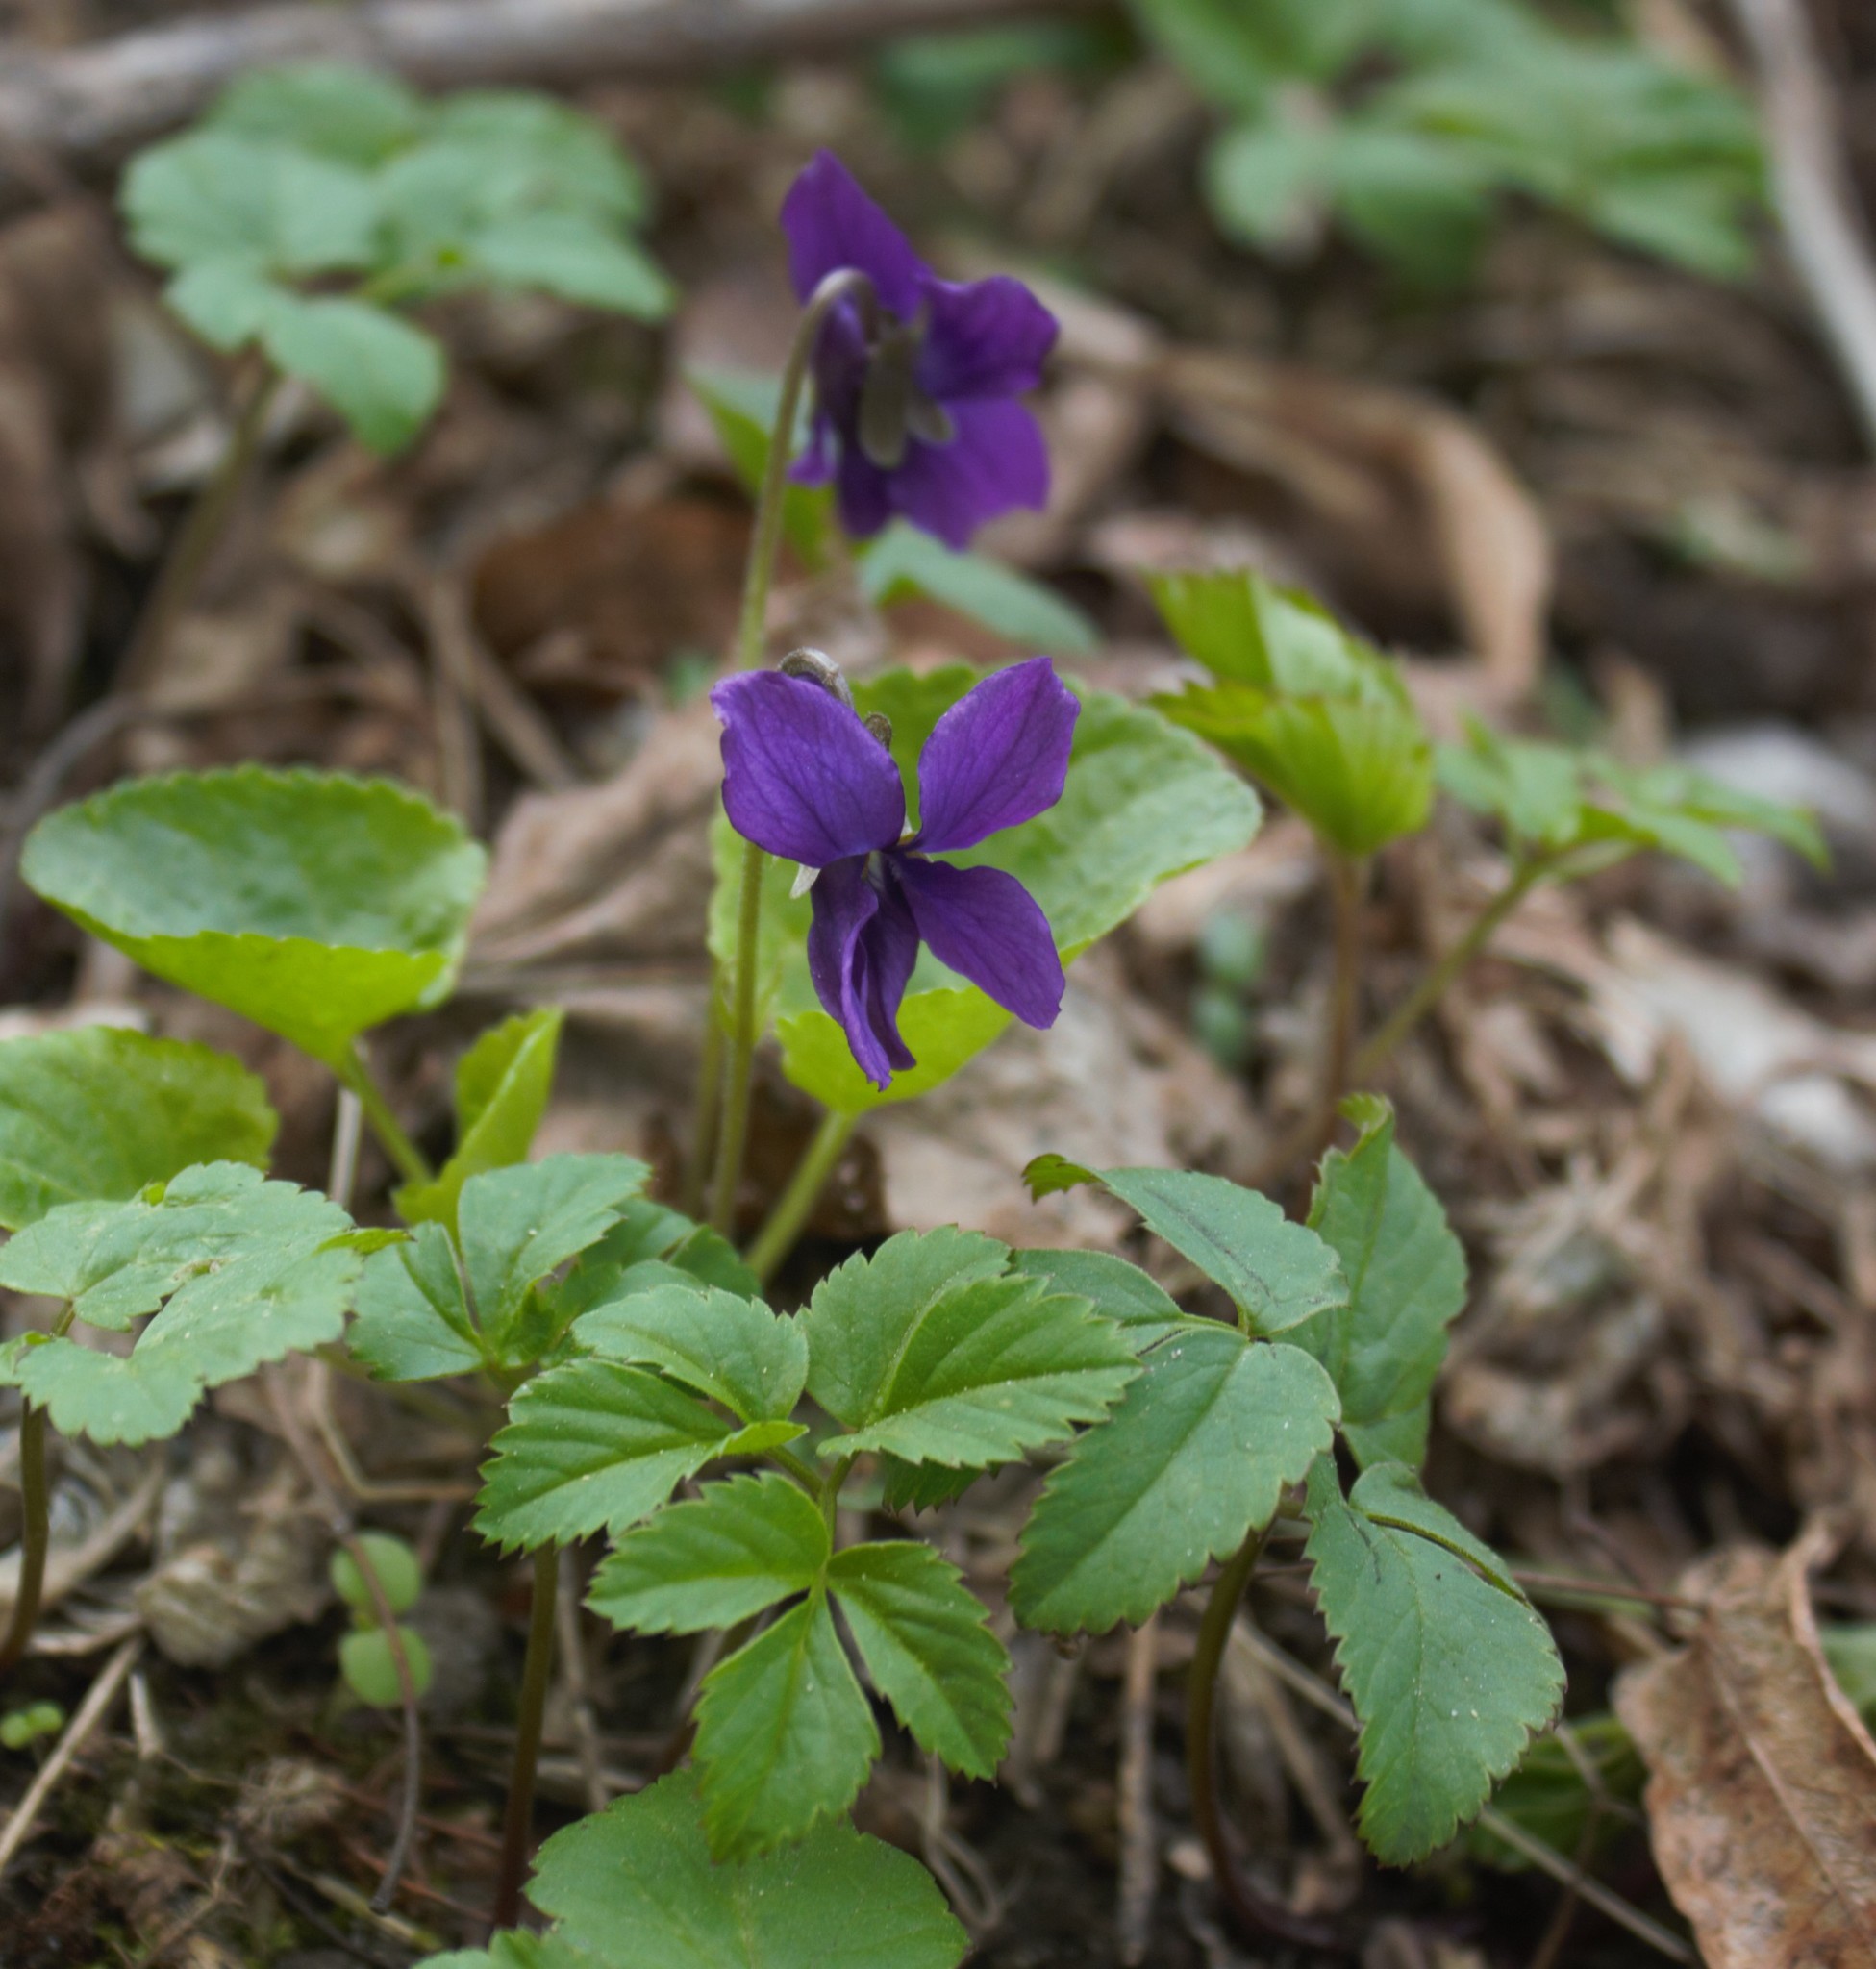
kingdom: Plantae
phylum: Tracheophyta
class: Magnoliopsida
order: Malpighiales
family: Violaceae
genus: Viola
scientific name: Viola odorata
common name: Sweet violet
